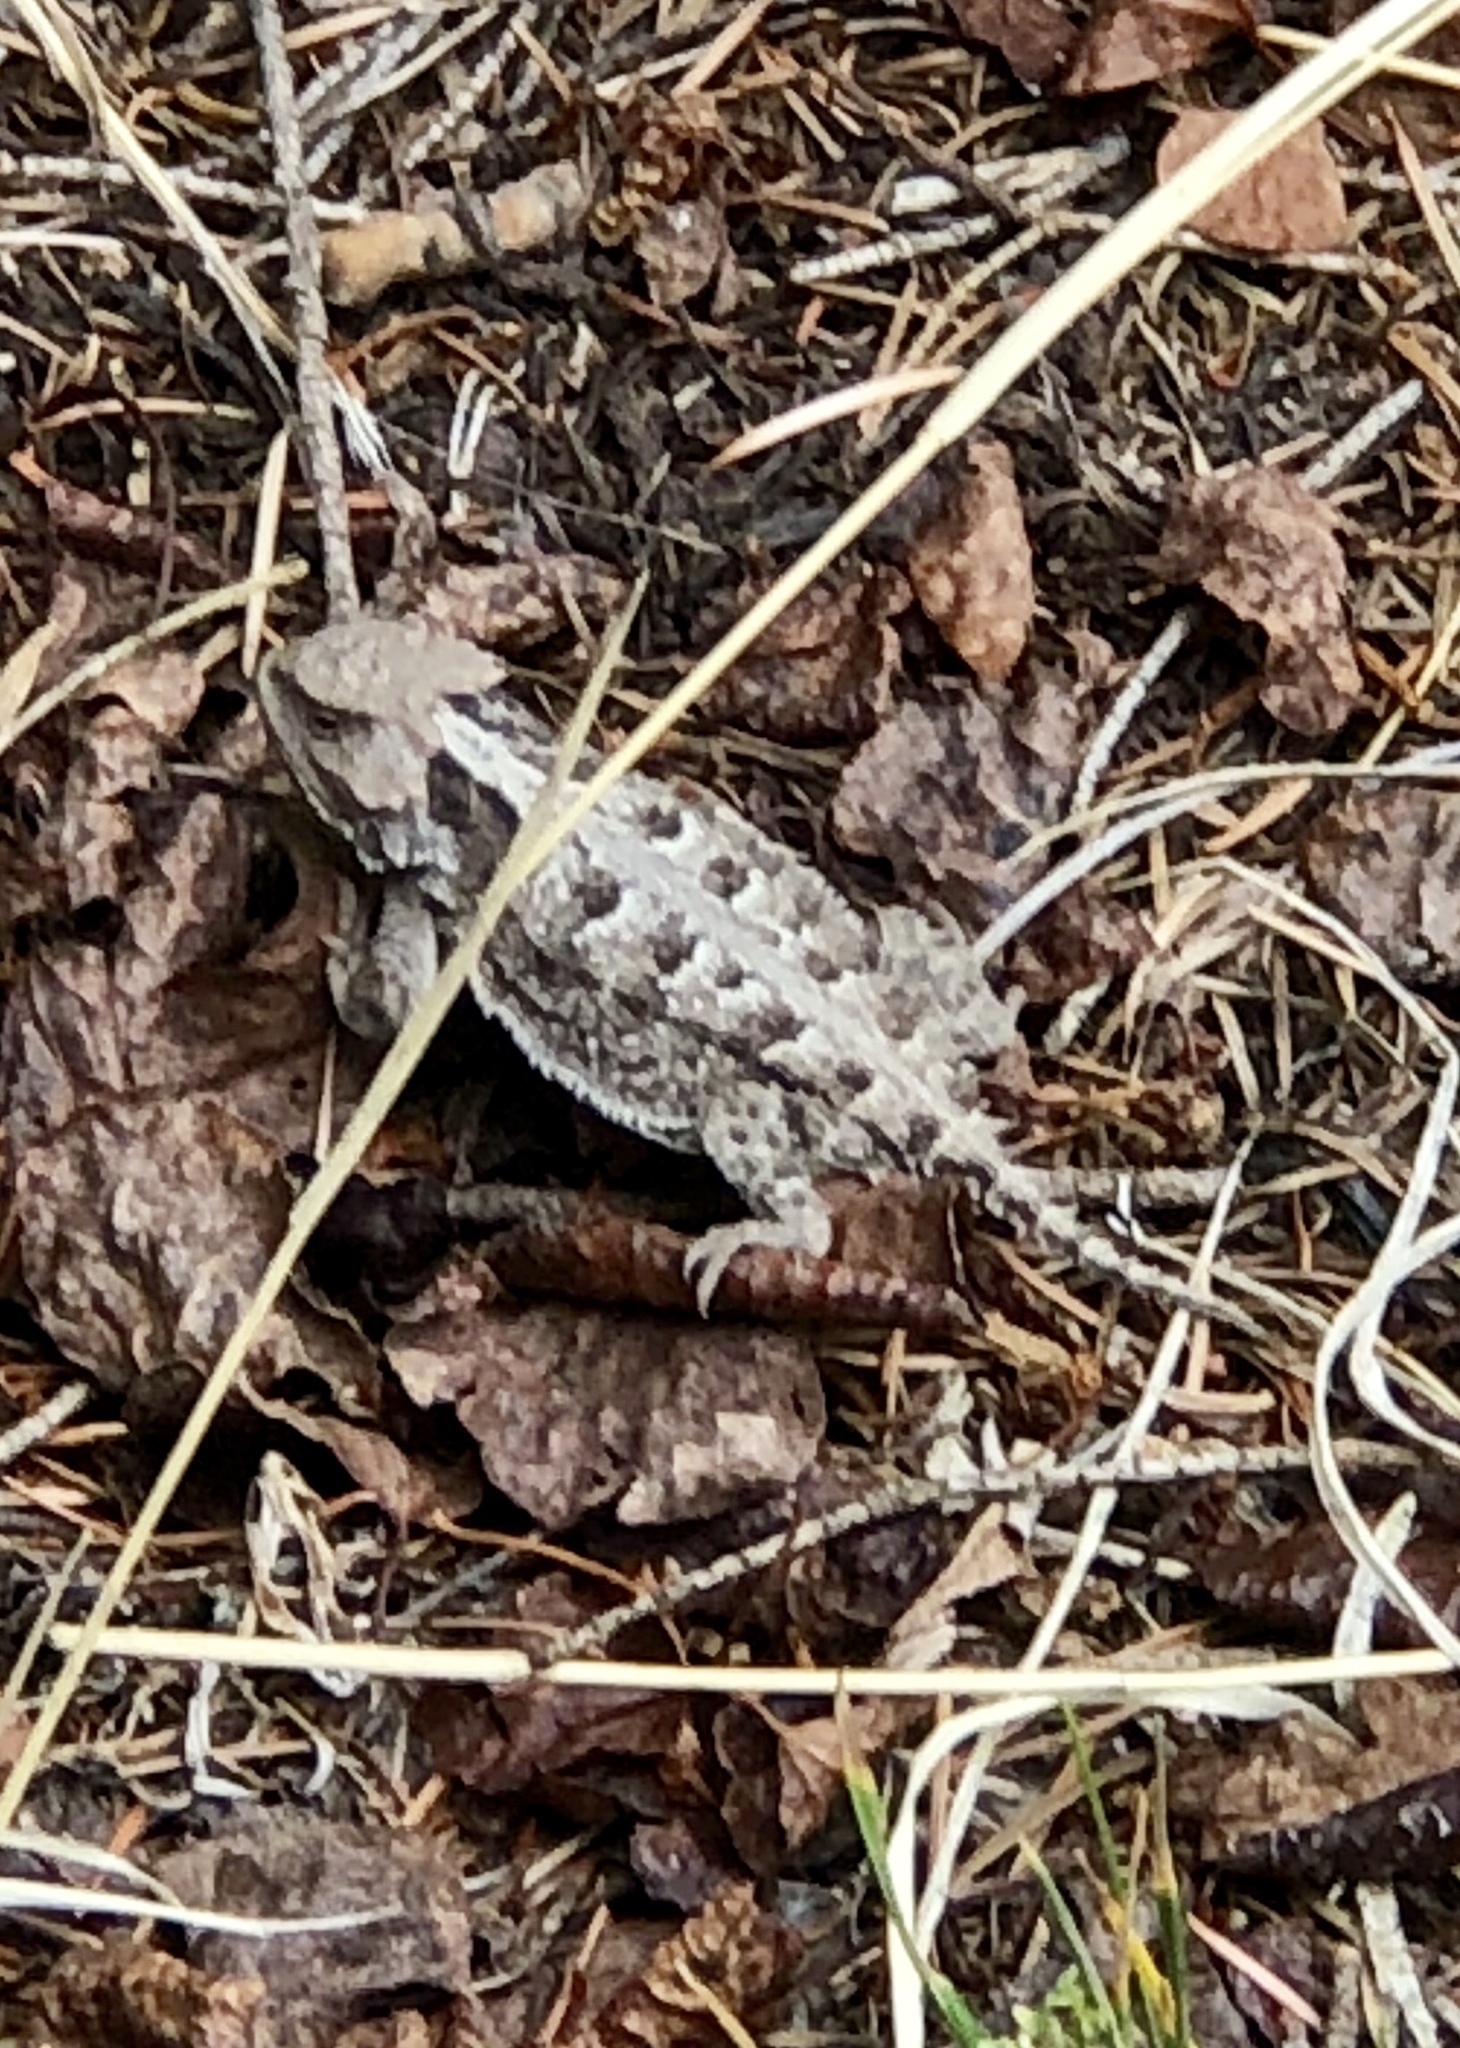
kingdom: Animalia
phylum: Chordata
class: Squamata
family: Phrynosomatidae
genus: Phrynosoma
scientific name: Phrynosoma hernandesi
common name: Greater short-horned lizard
